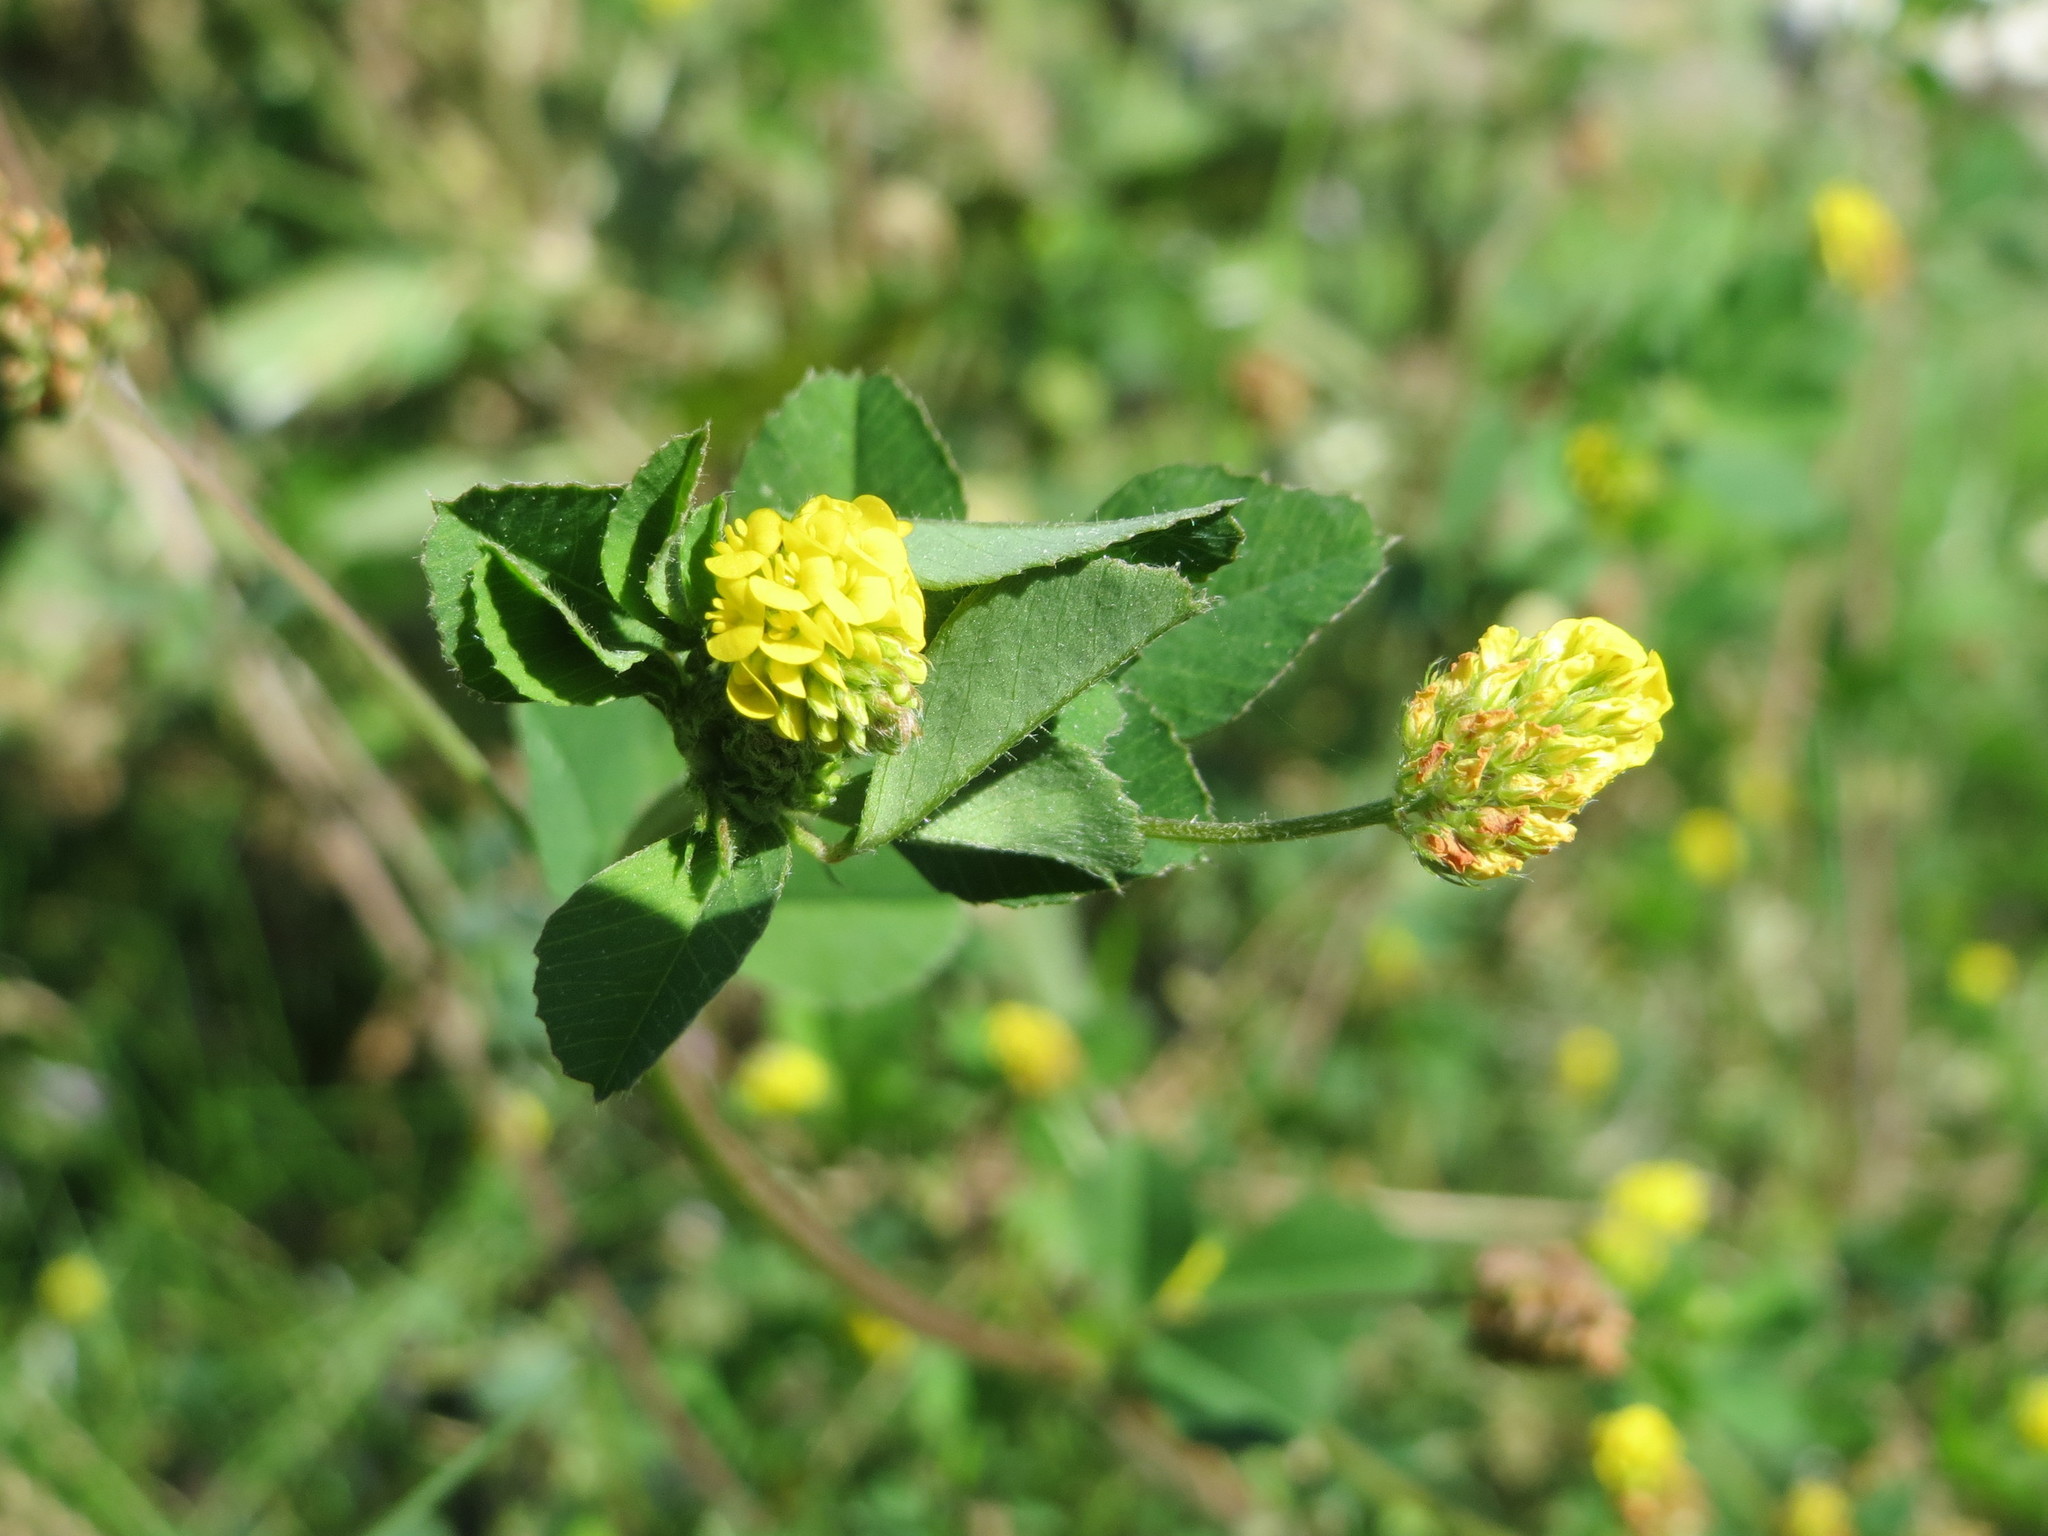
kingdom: Plantae
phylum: Tracheophyta
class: Magnoliopsida
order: Fabales
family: Fabaceae
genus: Medicago
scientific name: Medicago lupulina
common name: Black medick
